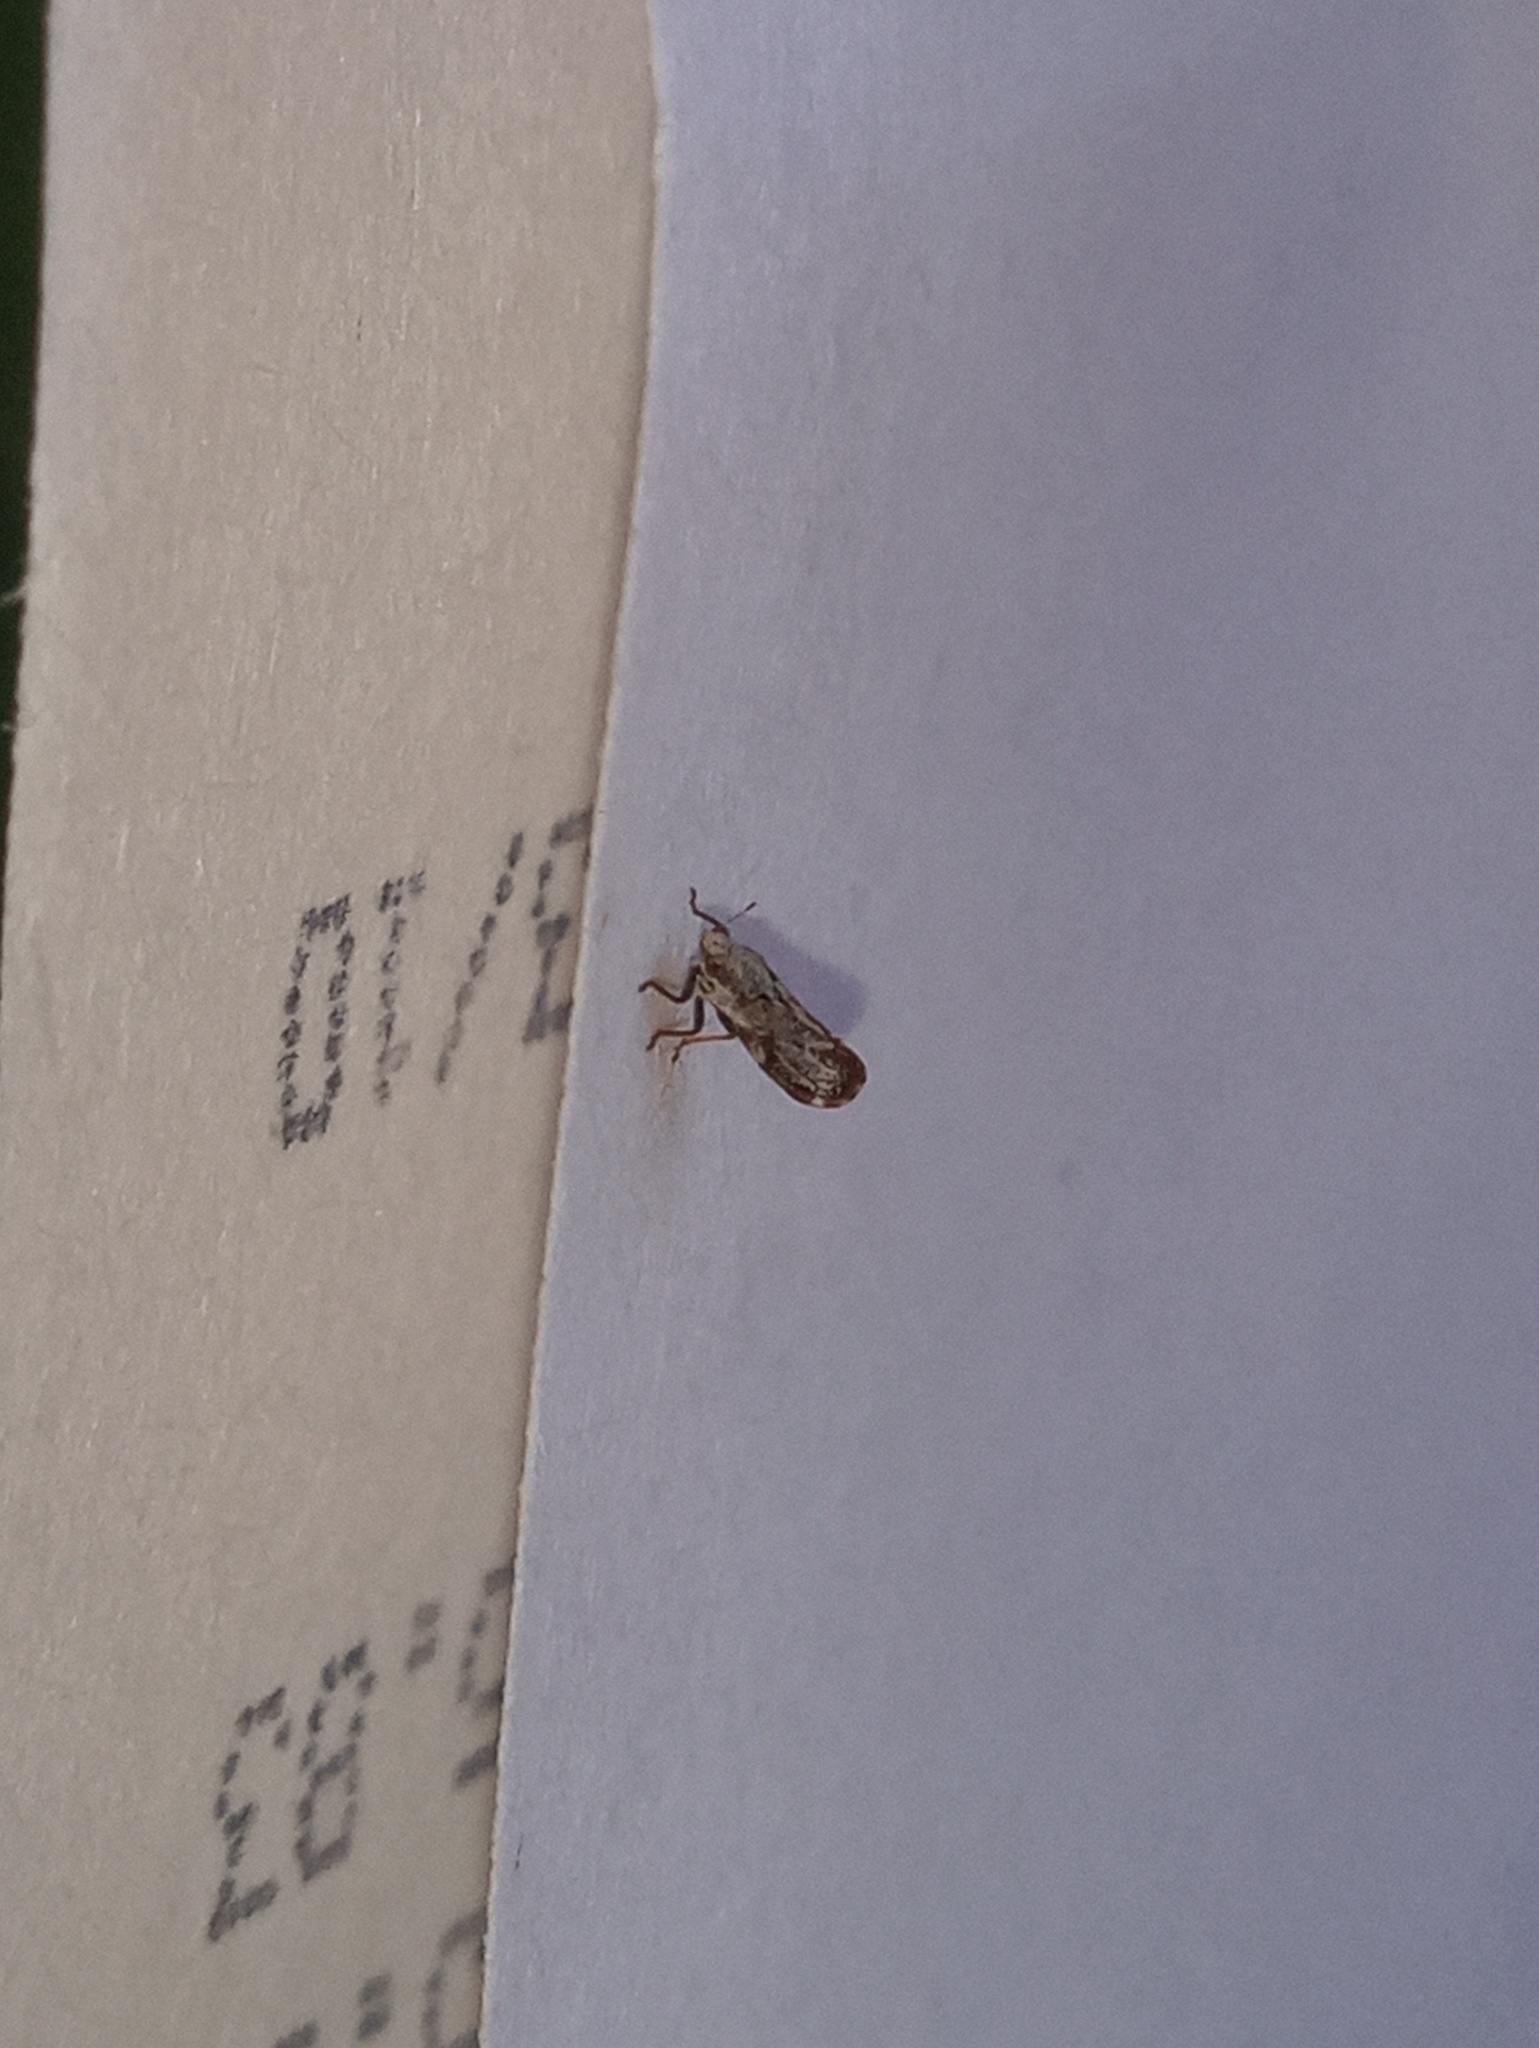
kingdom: Animalia
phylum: Arthropoda
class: Insecta
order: Hemiptera
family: Liviidae
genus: Diaphorina
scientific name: Diaphorina citri
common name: Asian citrus psyllid
